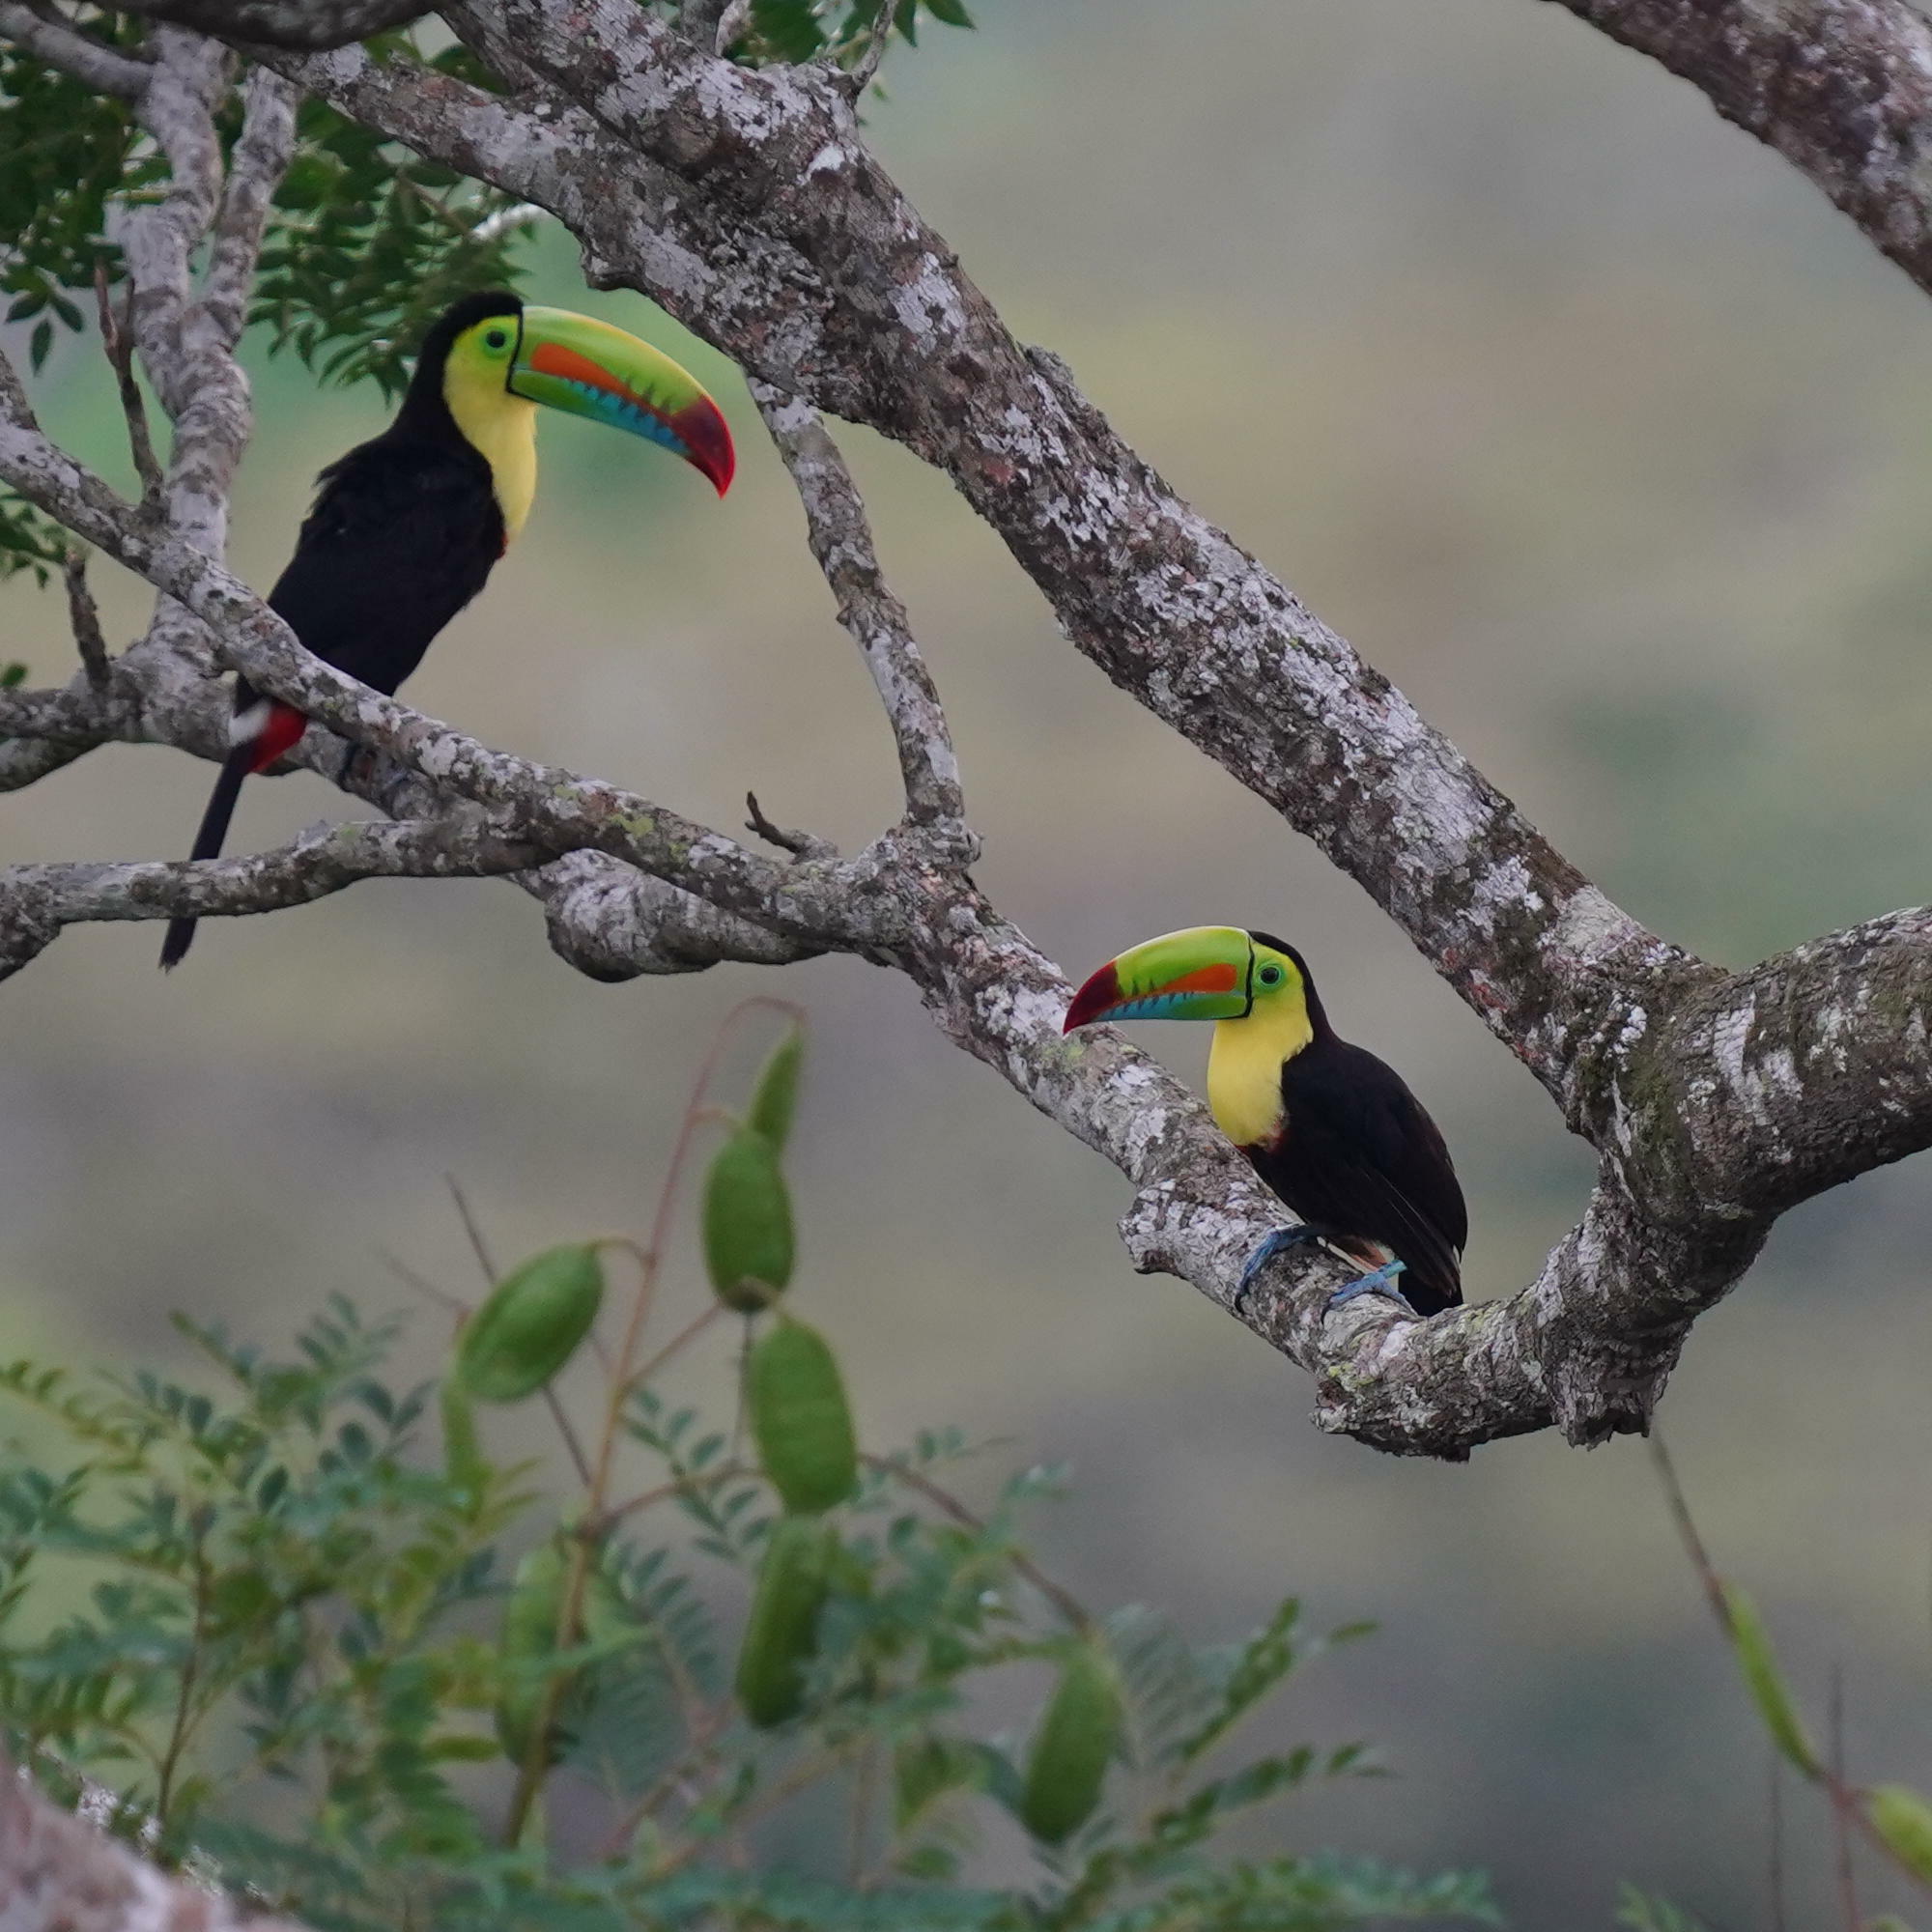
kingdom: Animalia
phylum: Chordata
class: Aves
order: Piciformes
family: Ramphastidae
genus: Ramphastos
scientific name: Ramphastos sulfuratus
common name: Keel-billed toucan
